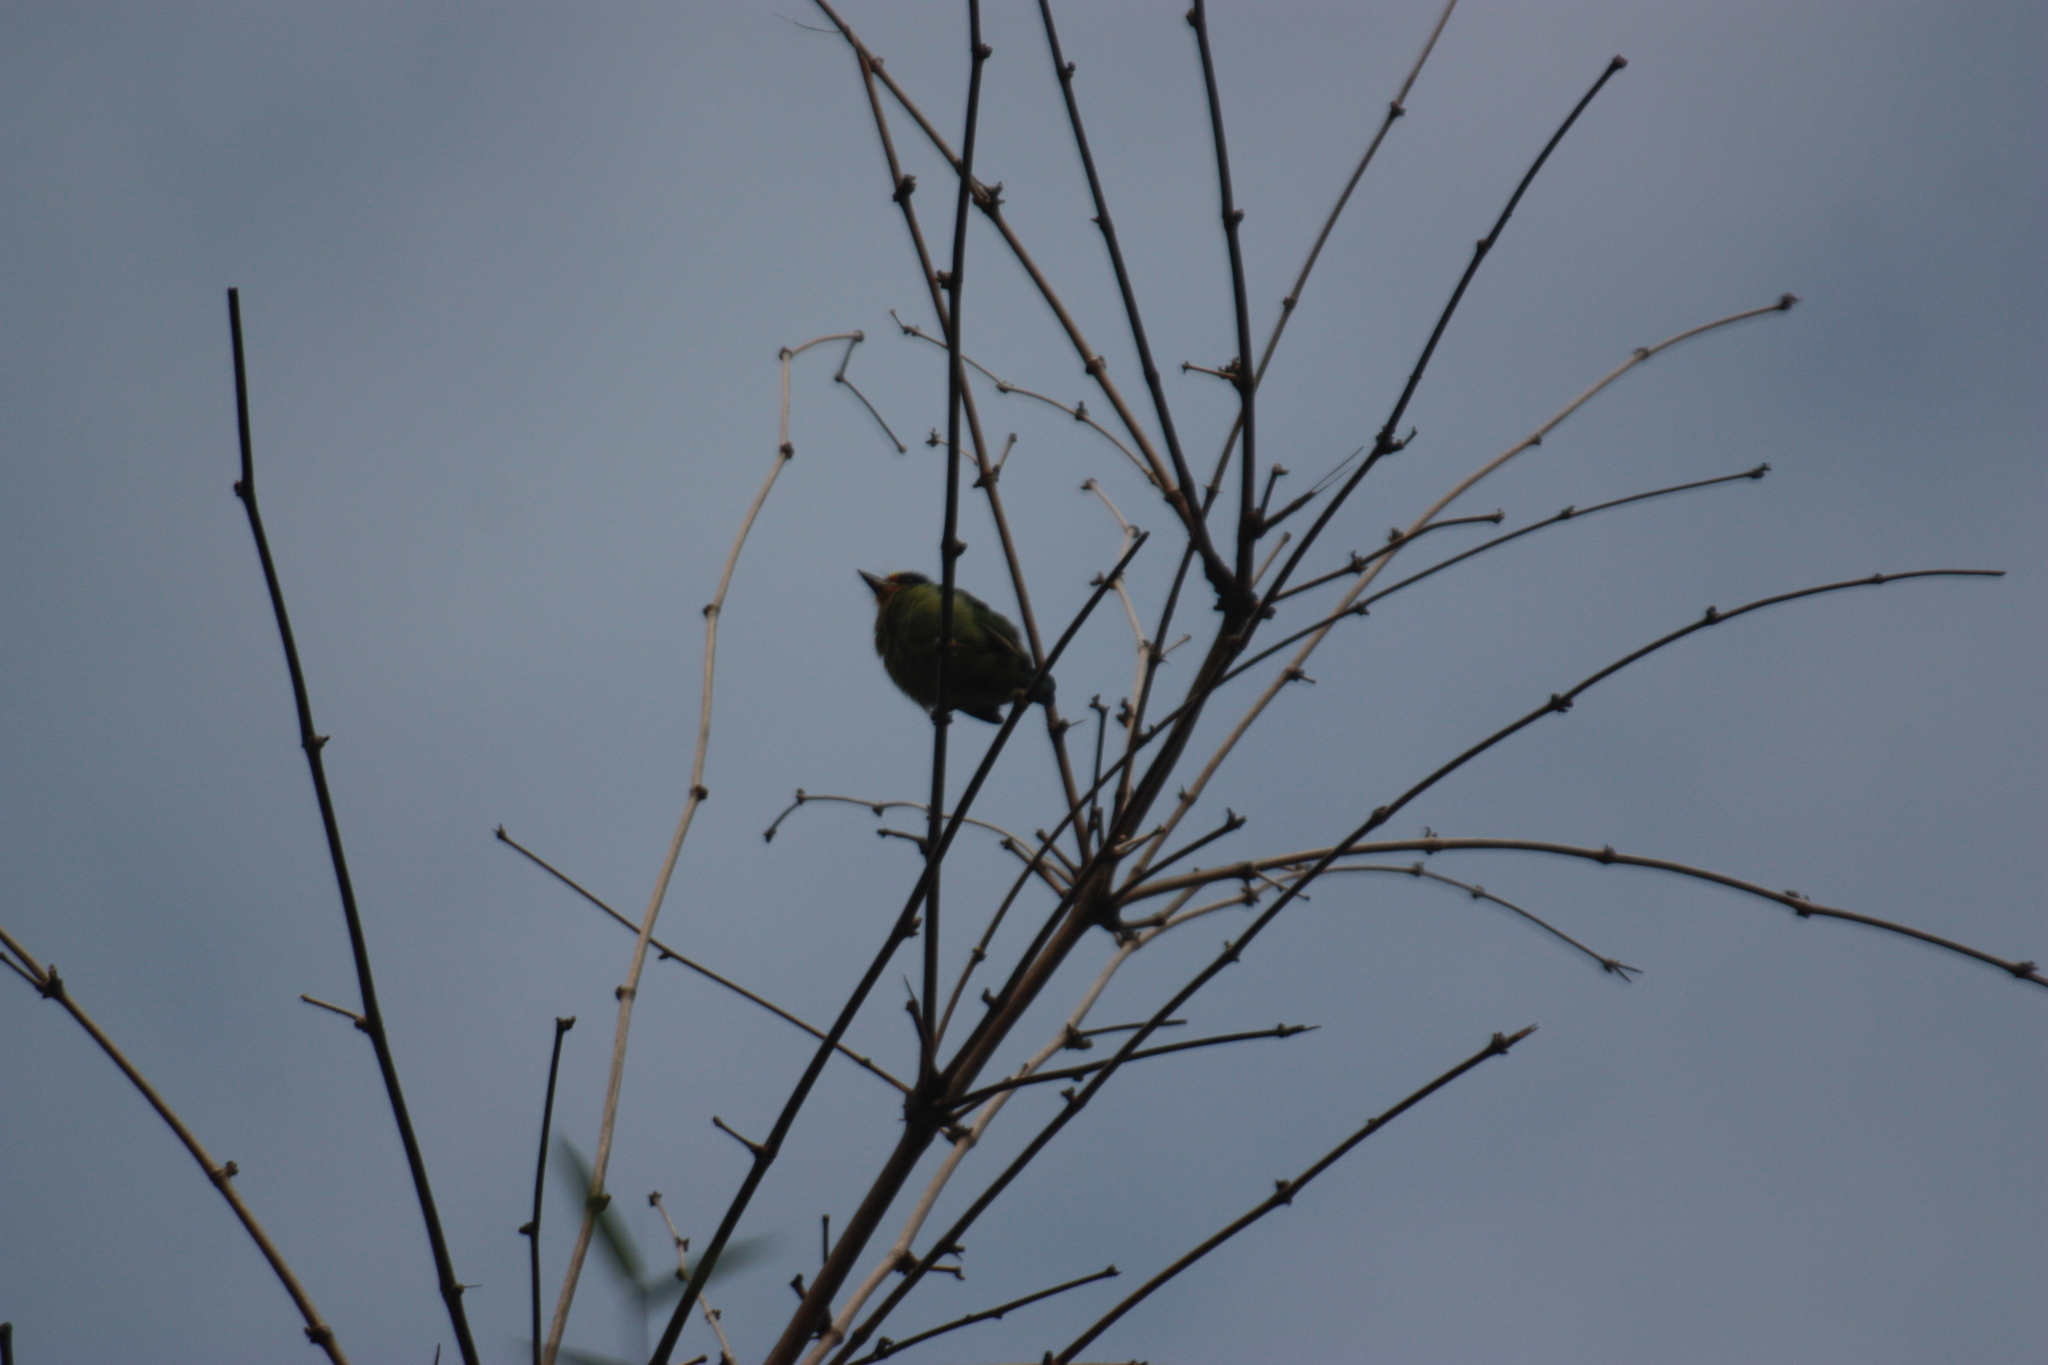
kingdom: Animalia
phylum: Chordata
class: Aves
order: Piciformes
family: Megalaimidae
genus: Psilopogon
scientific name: Psilopogon nuchalis
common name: Taiwan barbet
